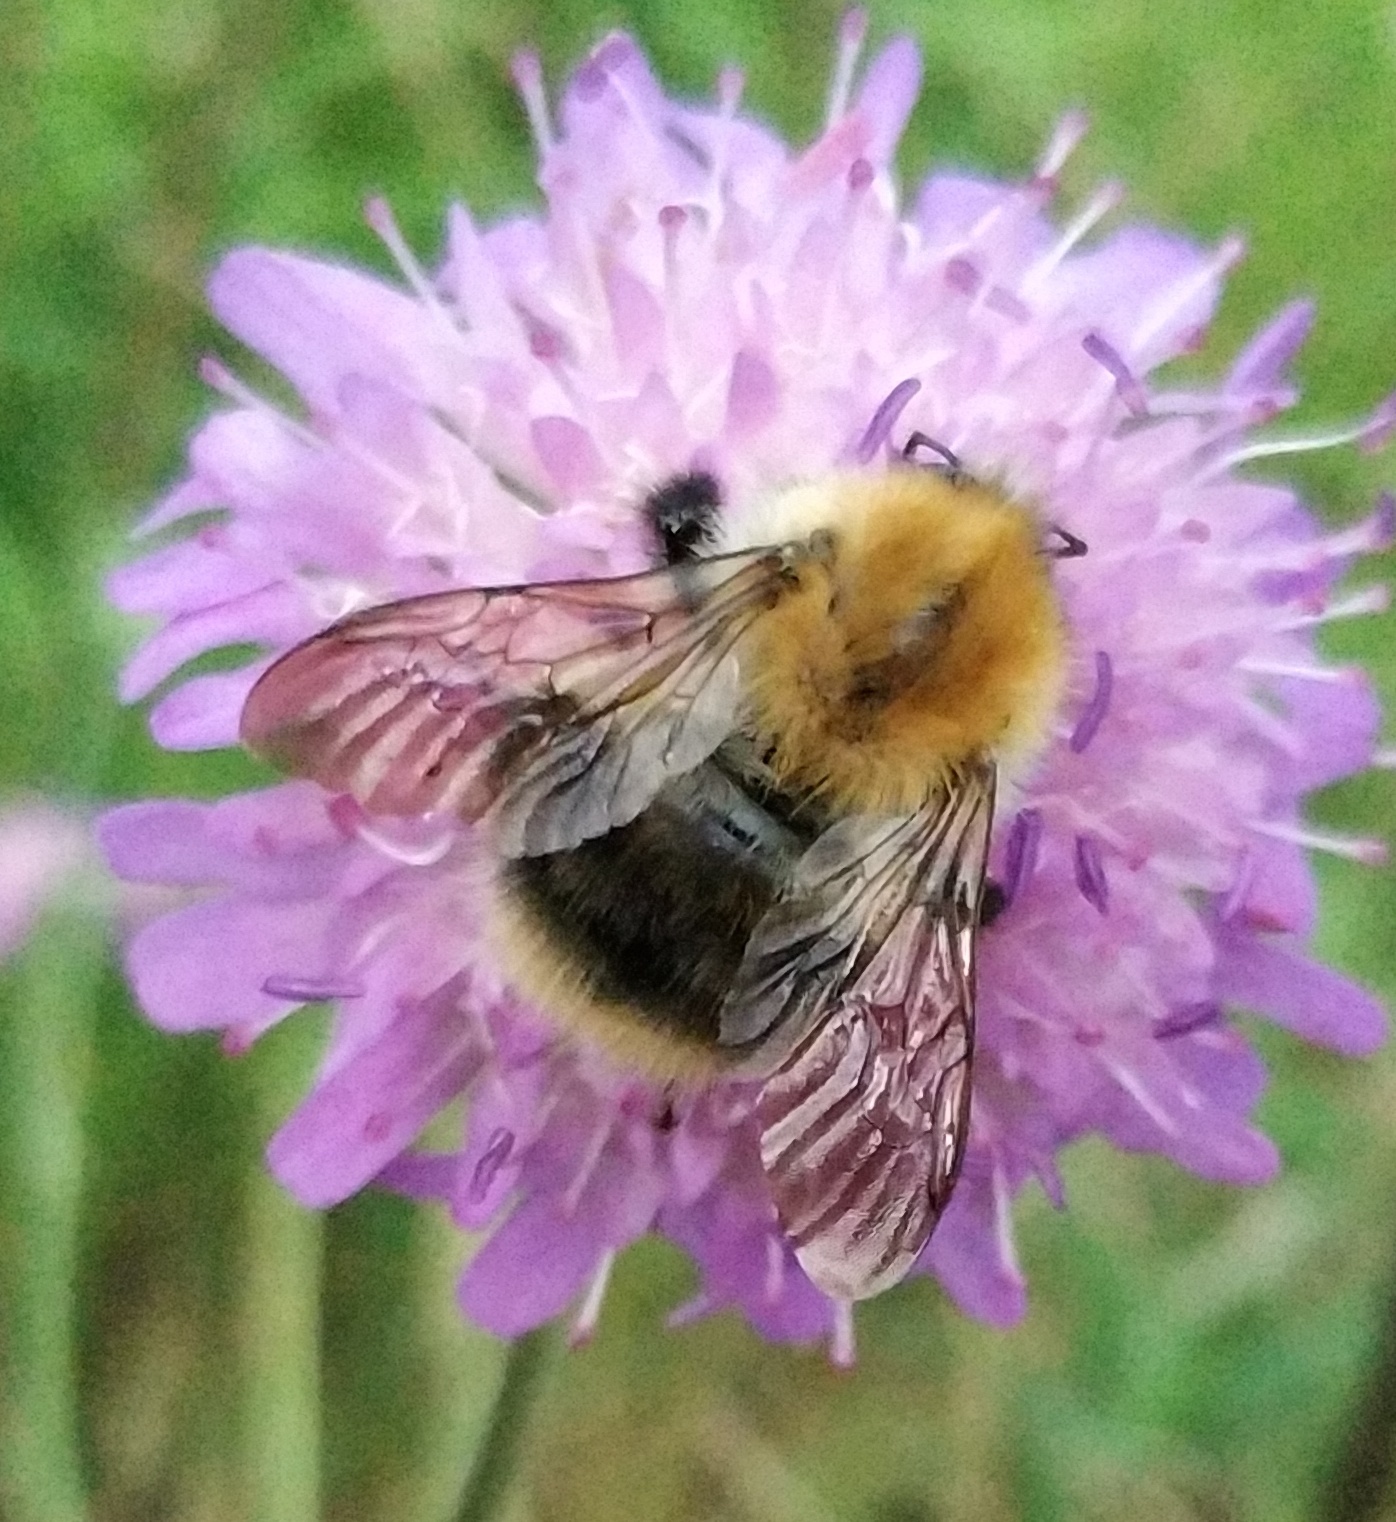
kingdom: Animalia
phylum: Arthropoda
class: Insecta
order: Hymenoptera
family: Apidae
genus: Bombus
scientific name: Bombus pascuorum
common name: Common carder bee
